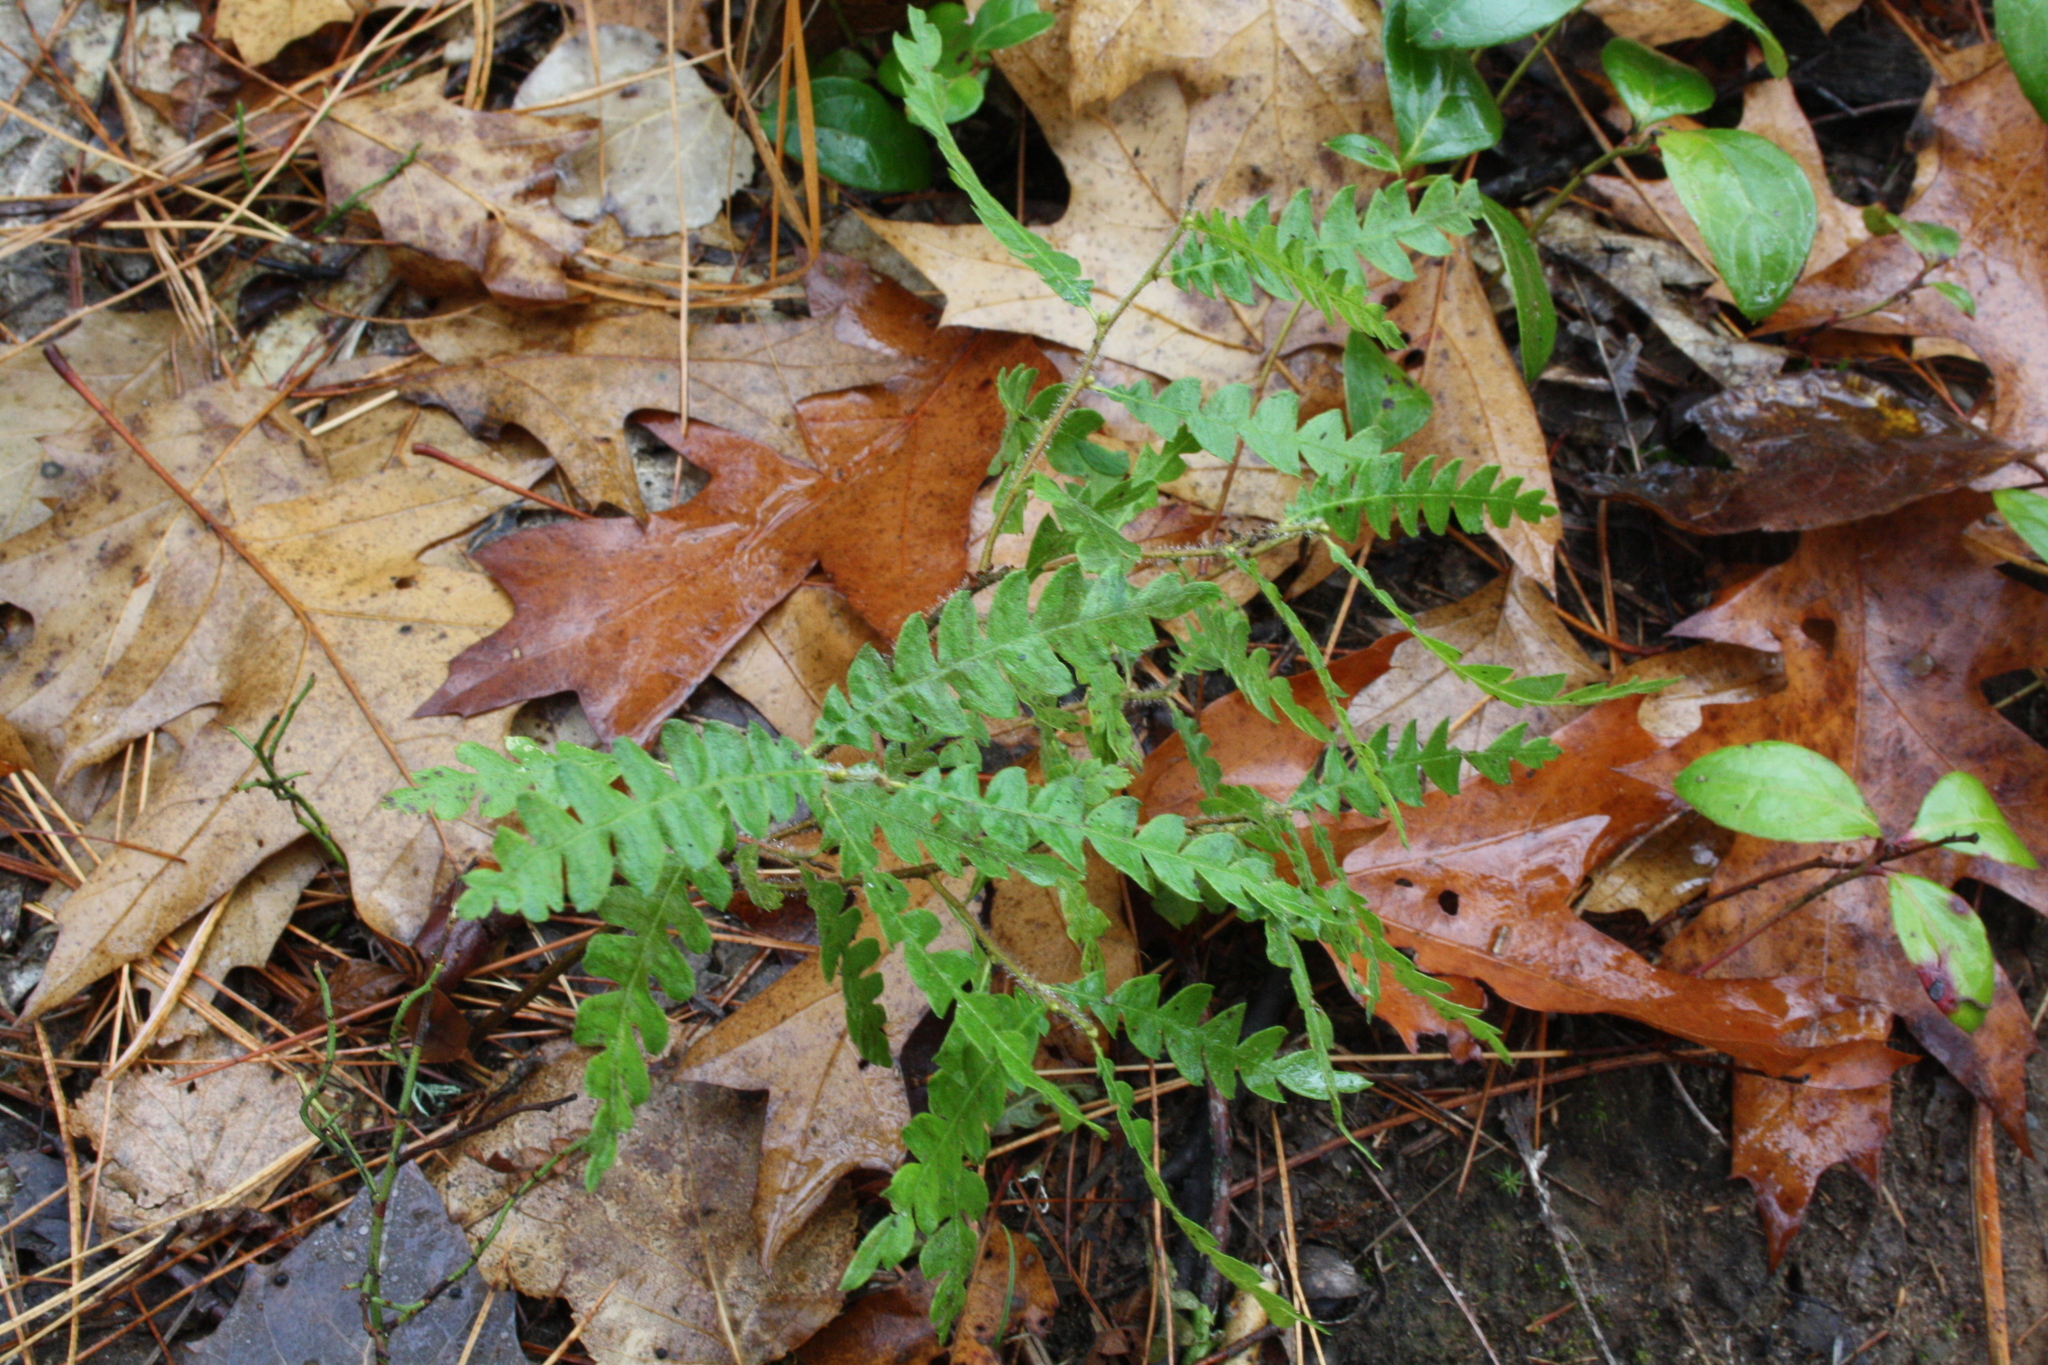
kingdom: Plantae
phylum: Tracheophyta
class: Magnoliopsida
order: Fagales
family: Myricaceae
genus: Comptonia
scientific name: Comptonia peregrina
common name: Sweet-fern
